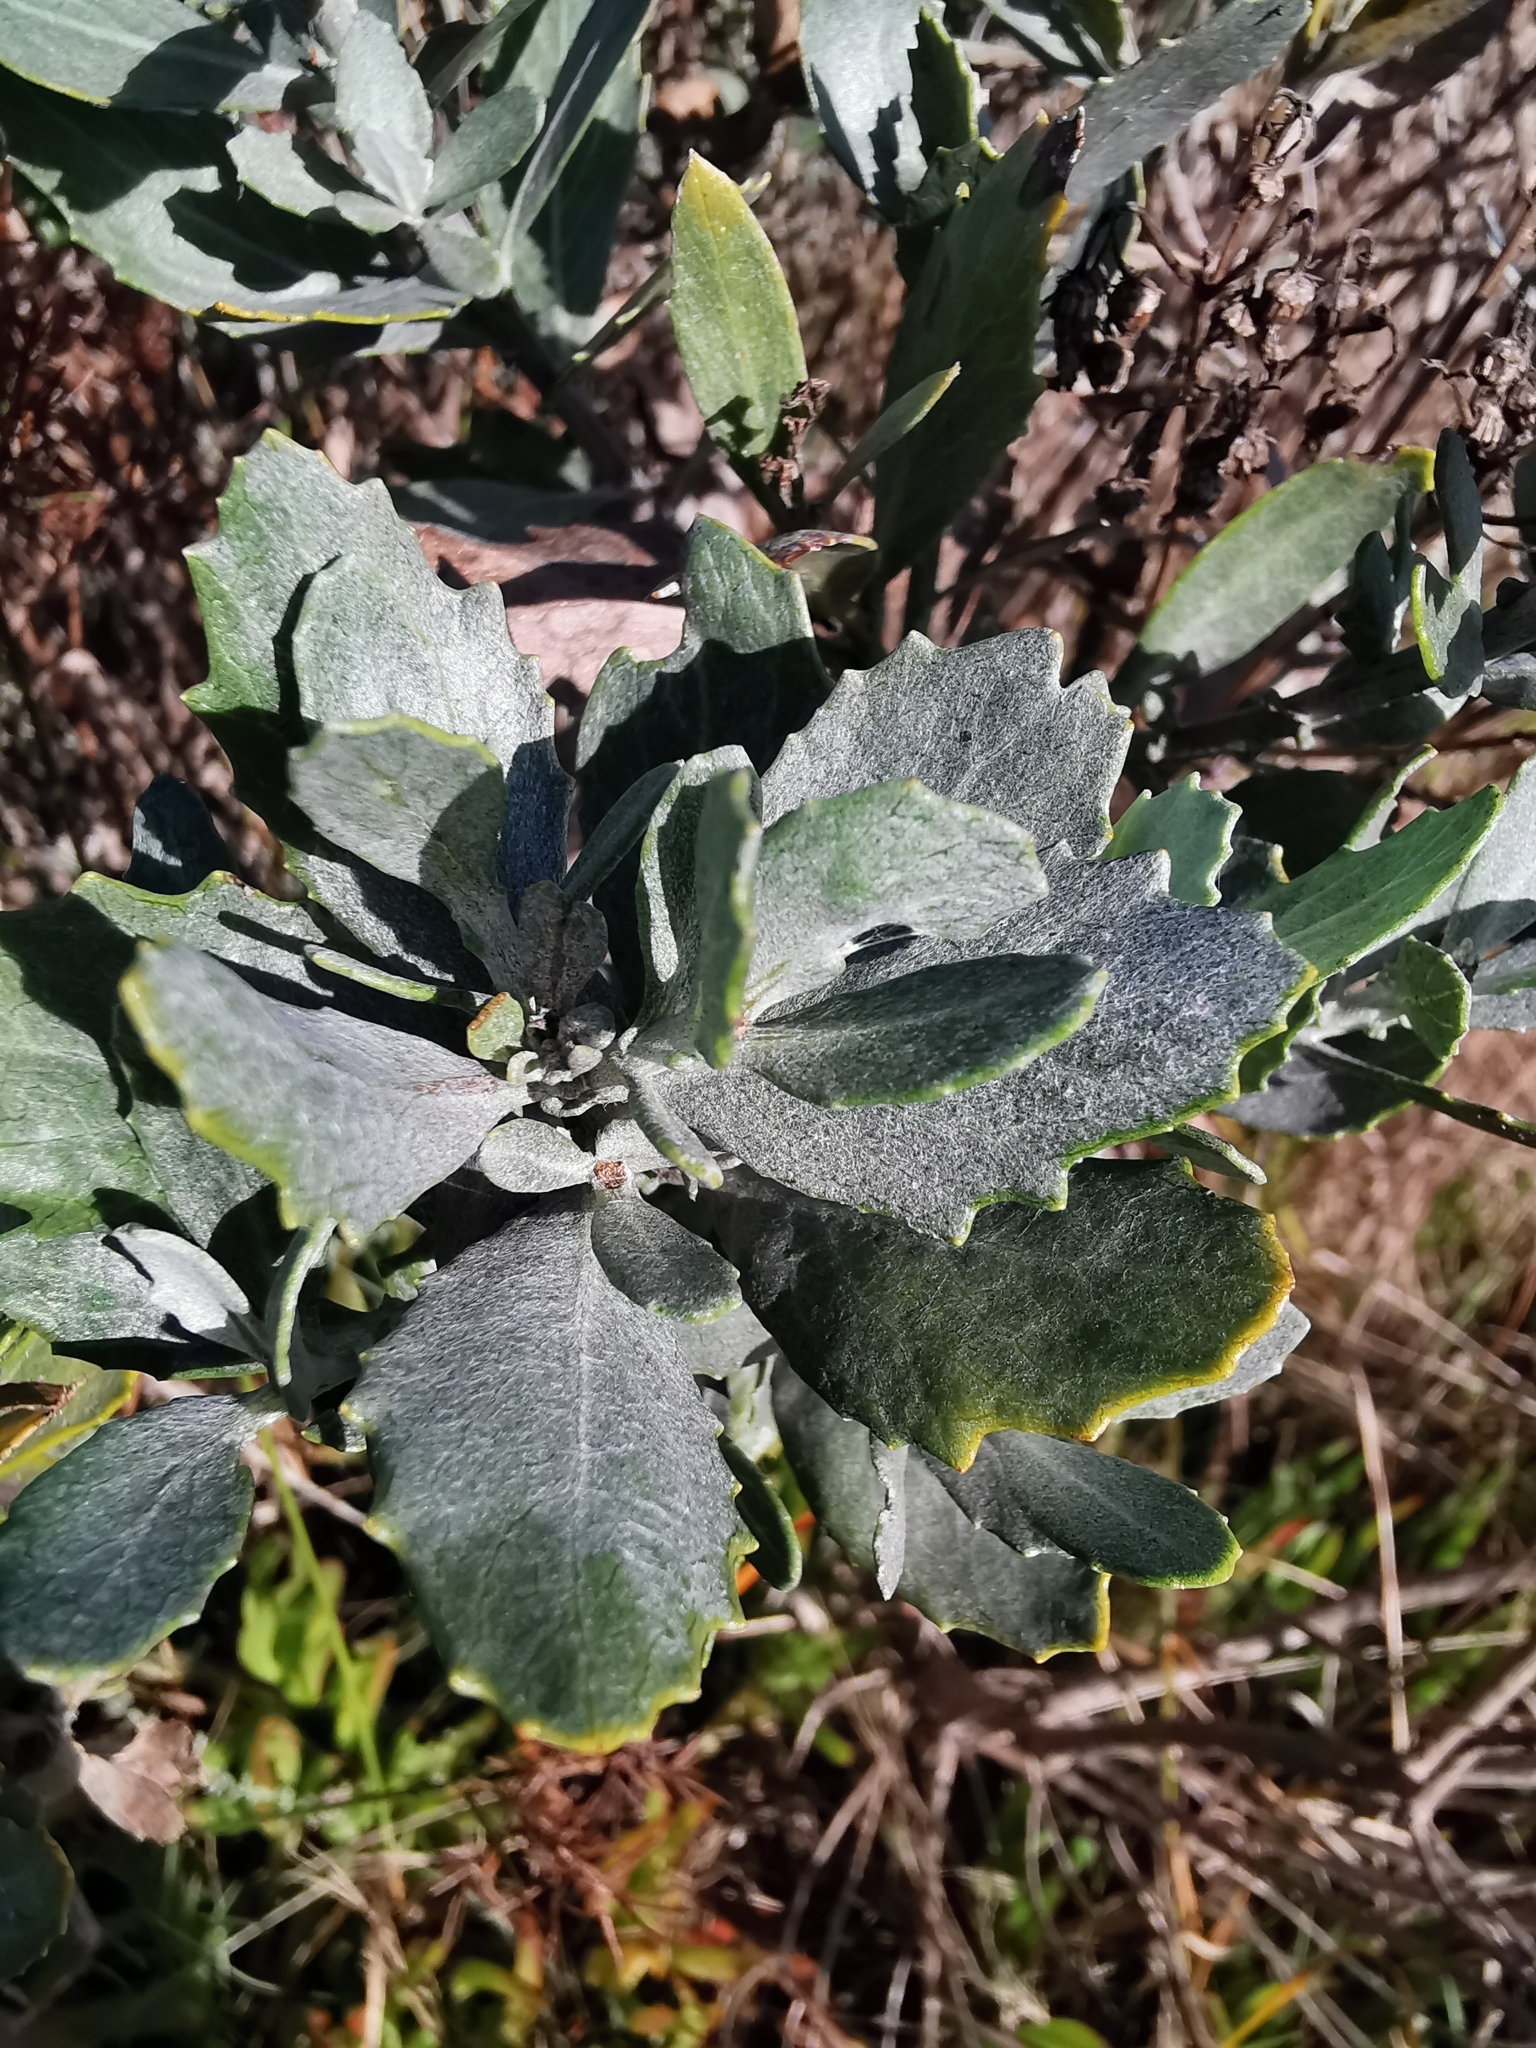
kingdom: Plantae
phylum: Tracheophyta
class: Magnoliopsida
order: Asterales
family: Asteraceae
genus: Senecio
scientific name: Senecio halimifolius
